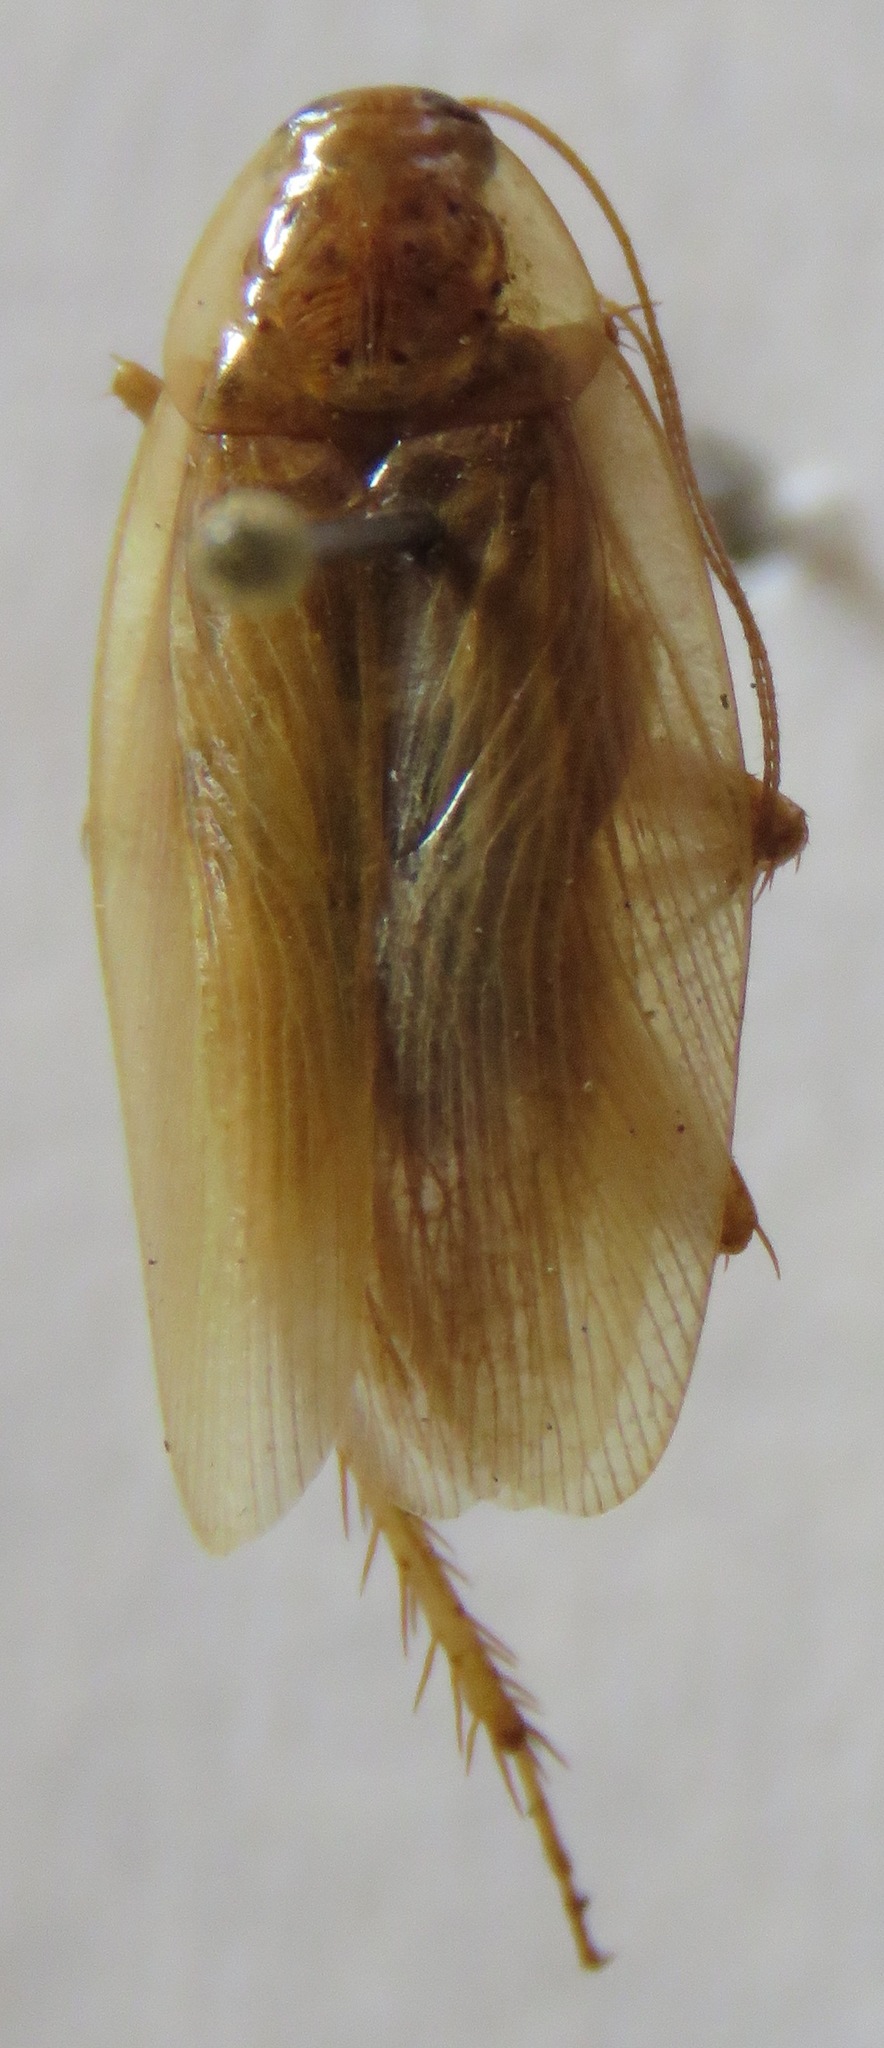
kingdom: Animalia
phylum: Arthropoda
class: Insecta
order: Blattodea
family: Ectobiidae
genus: Nahublattella
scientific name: Nahublattella fraterna
